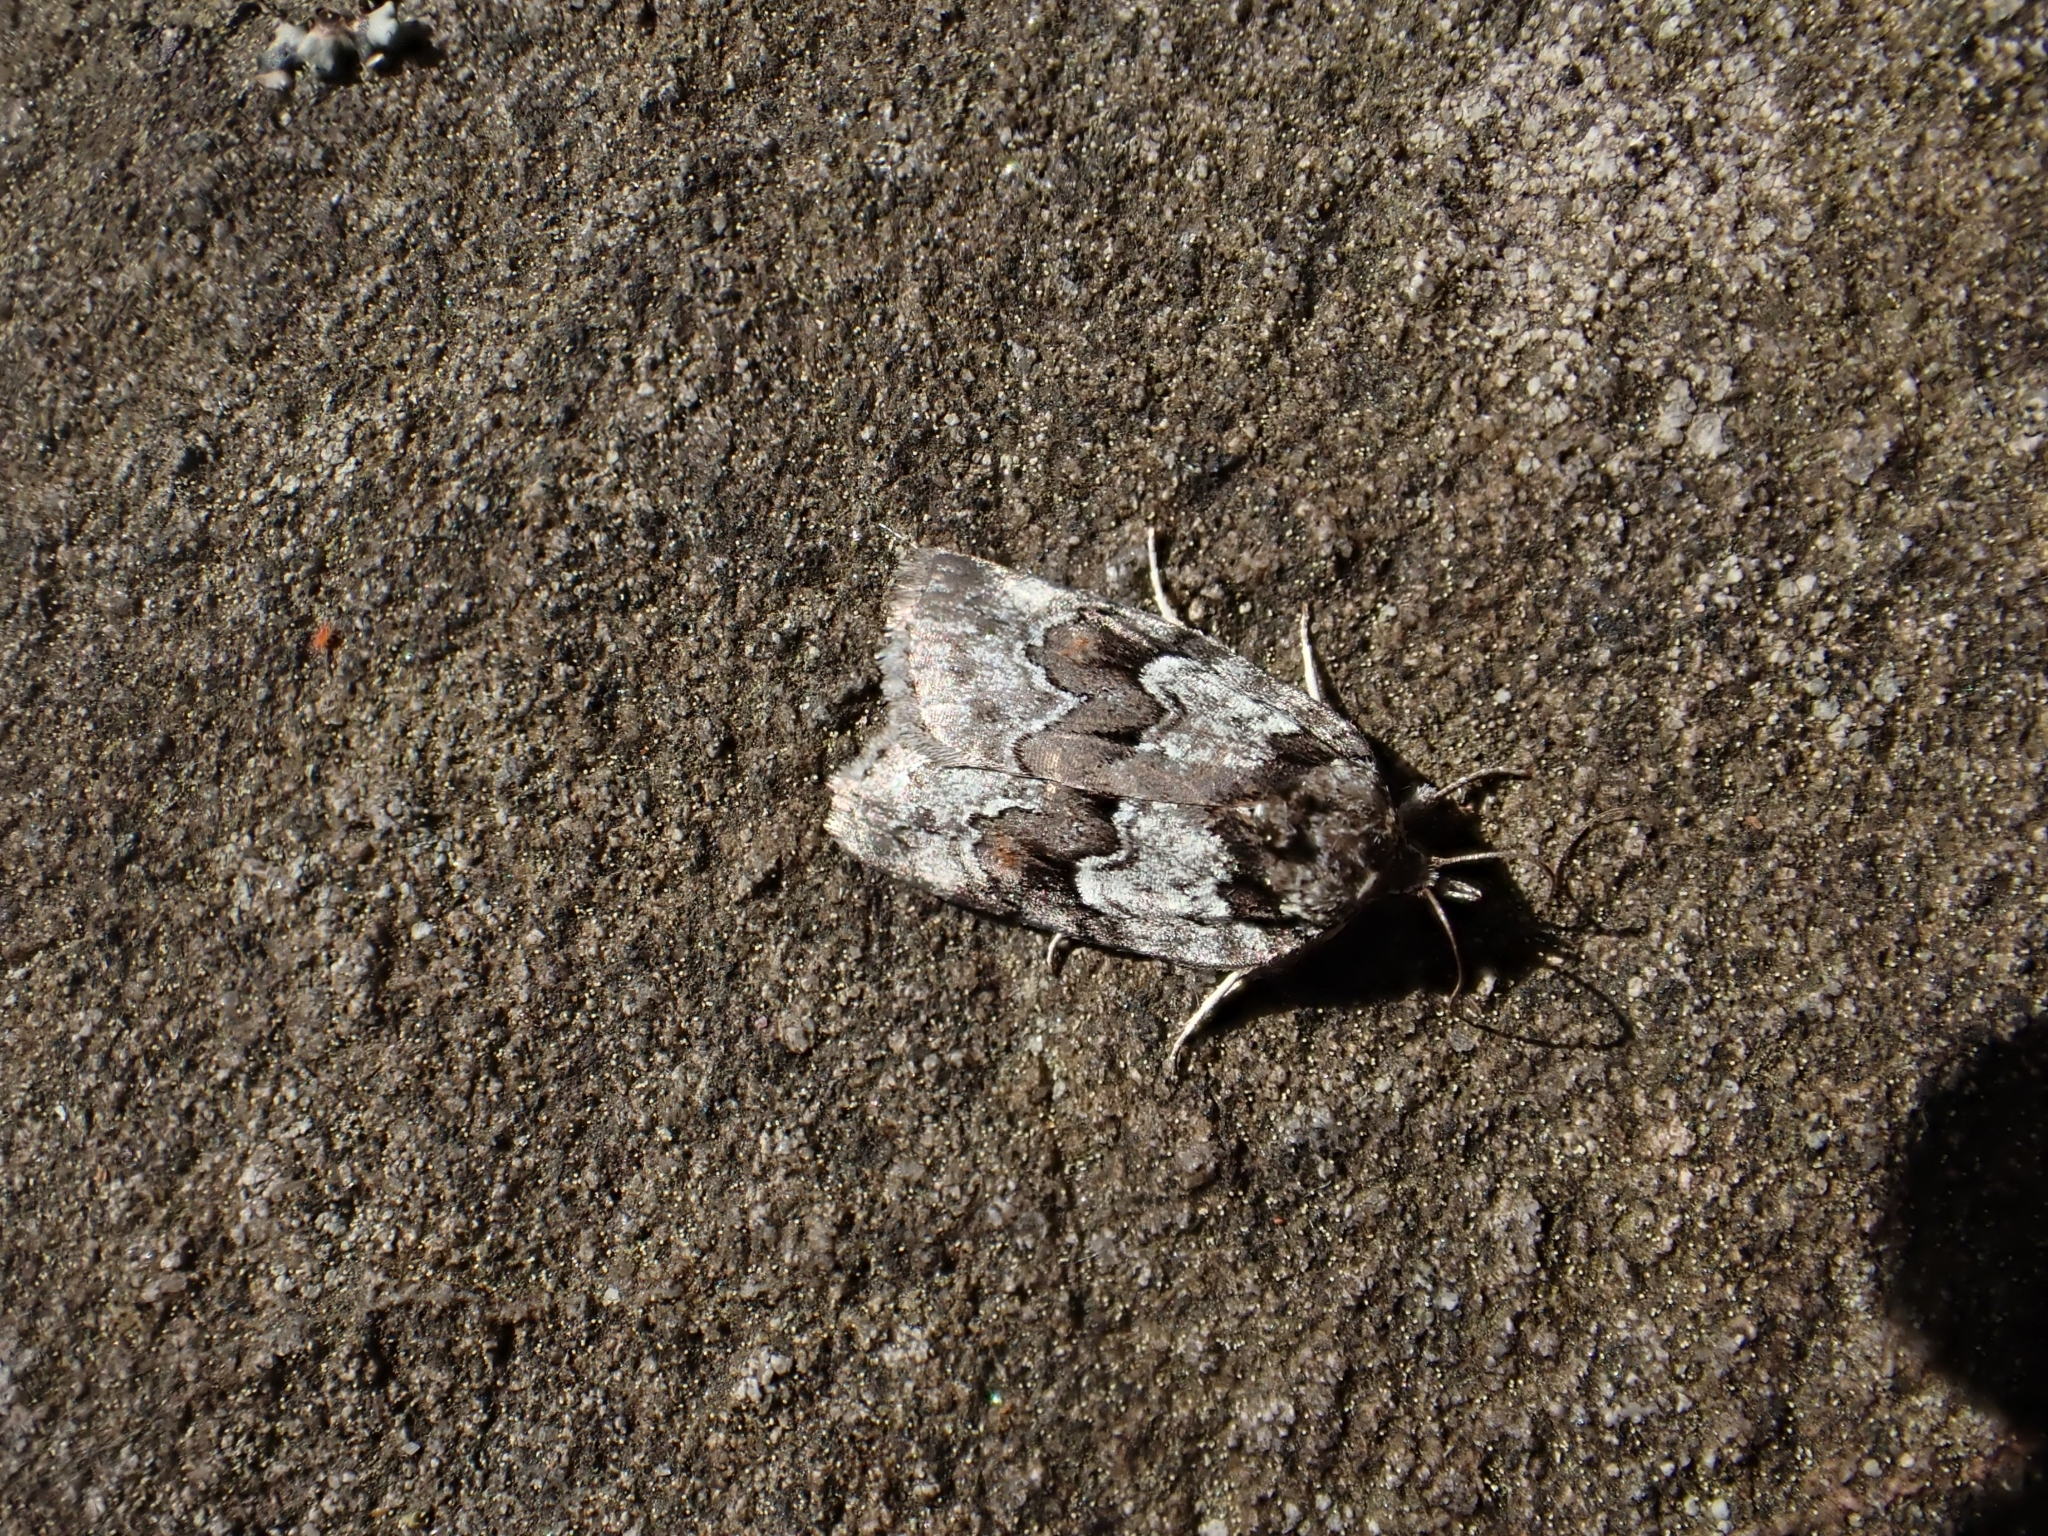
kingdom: Animalia
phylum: Arthropoda
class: Insecta
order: Lepidoptera
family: Nolidae
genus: Nycteola
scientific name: Nycteola degenerana
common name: Swallow nycteoline
